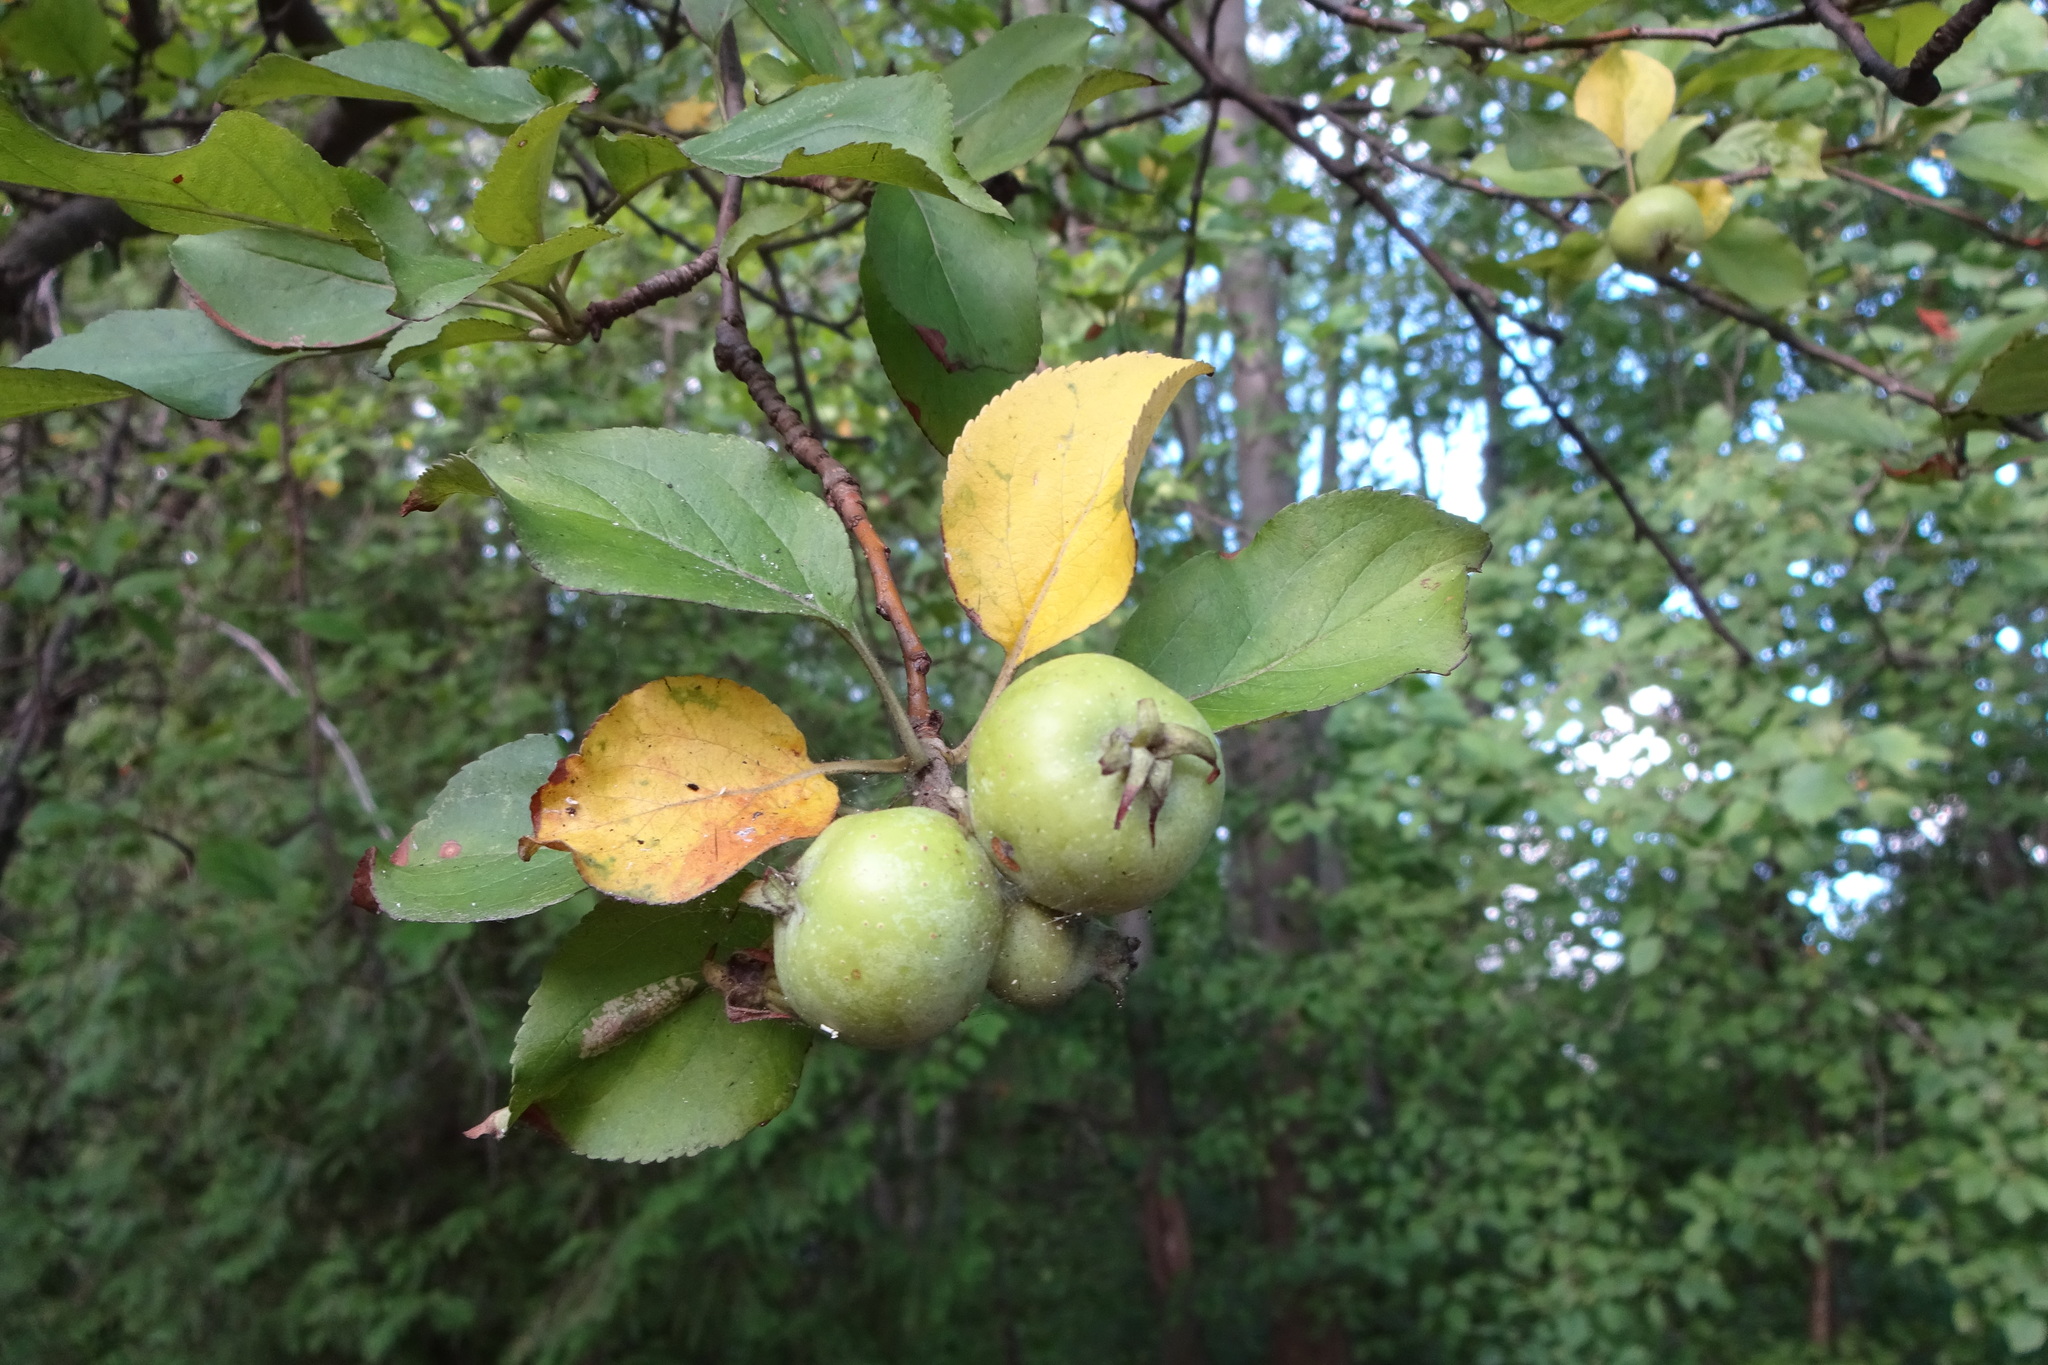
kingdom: Plantae
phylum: Tracheophyta
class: Magnoliopsida
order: Rosales
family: Rosaceae
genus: Malus
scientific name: Malus domestica
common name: Apple
